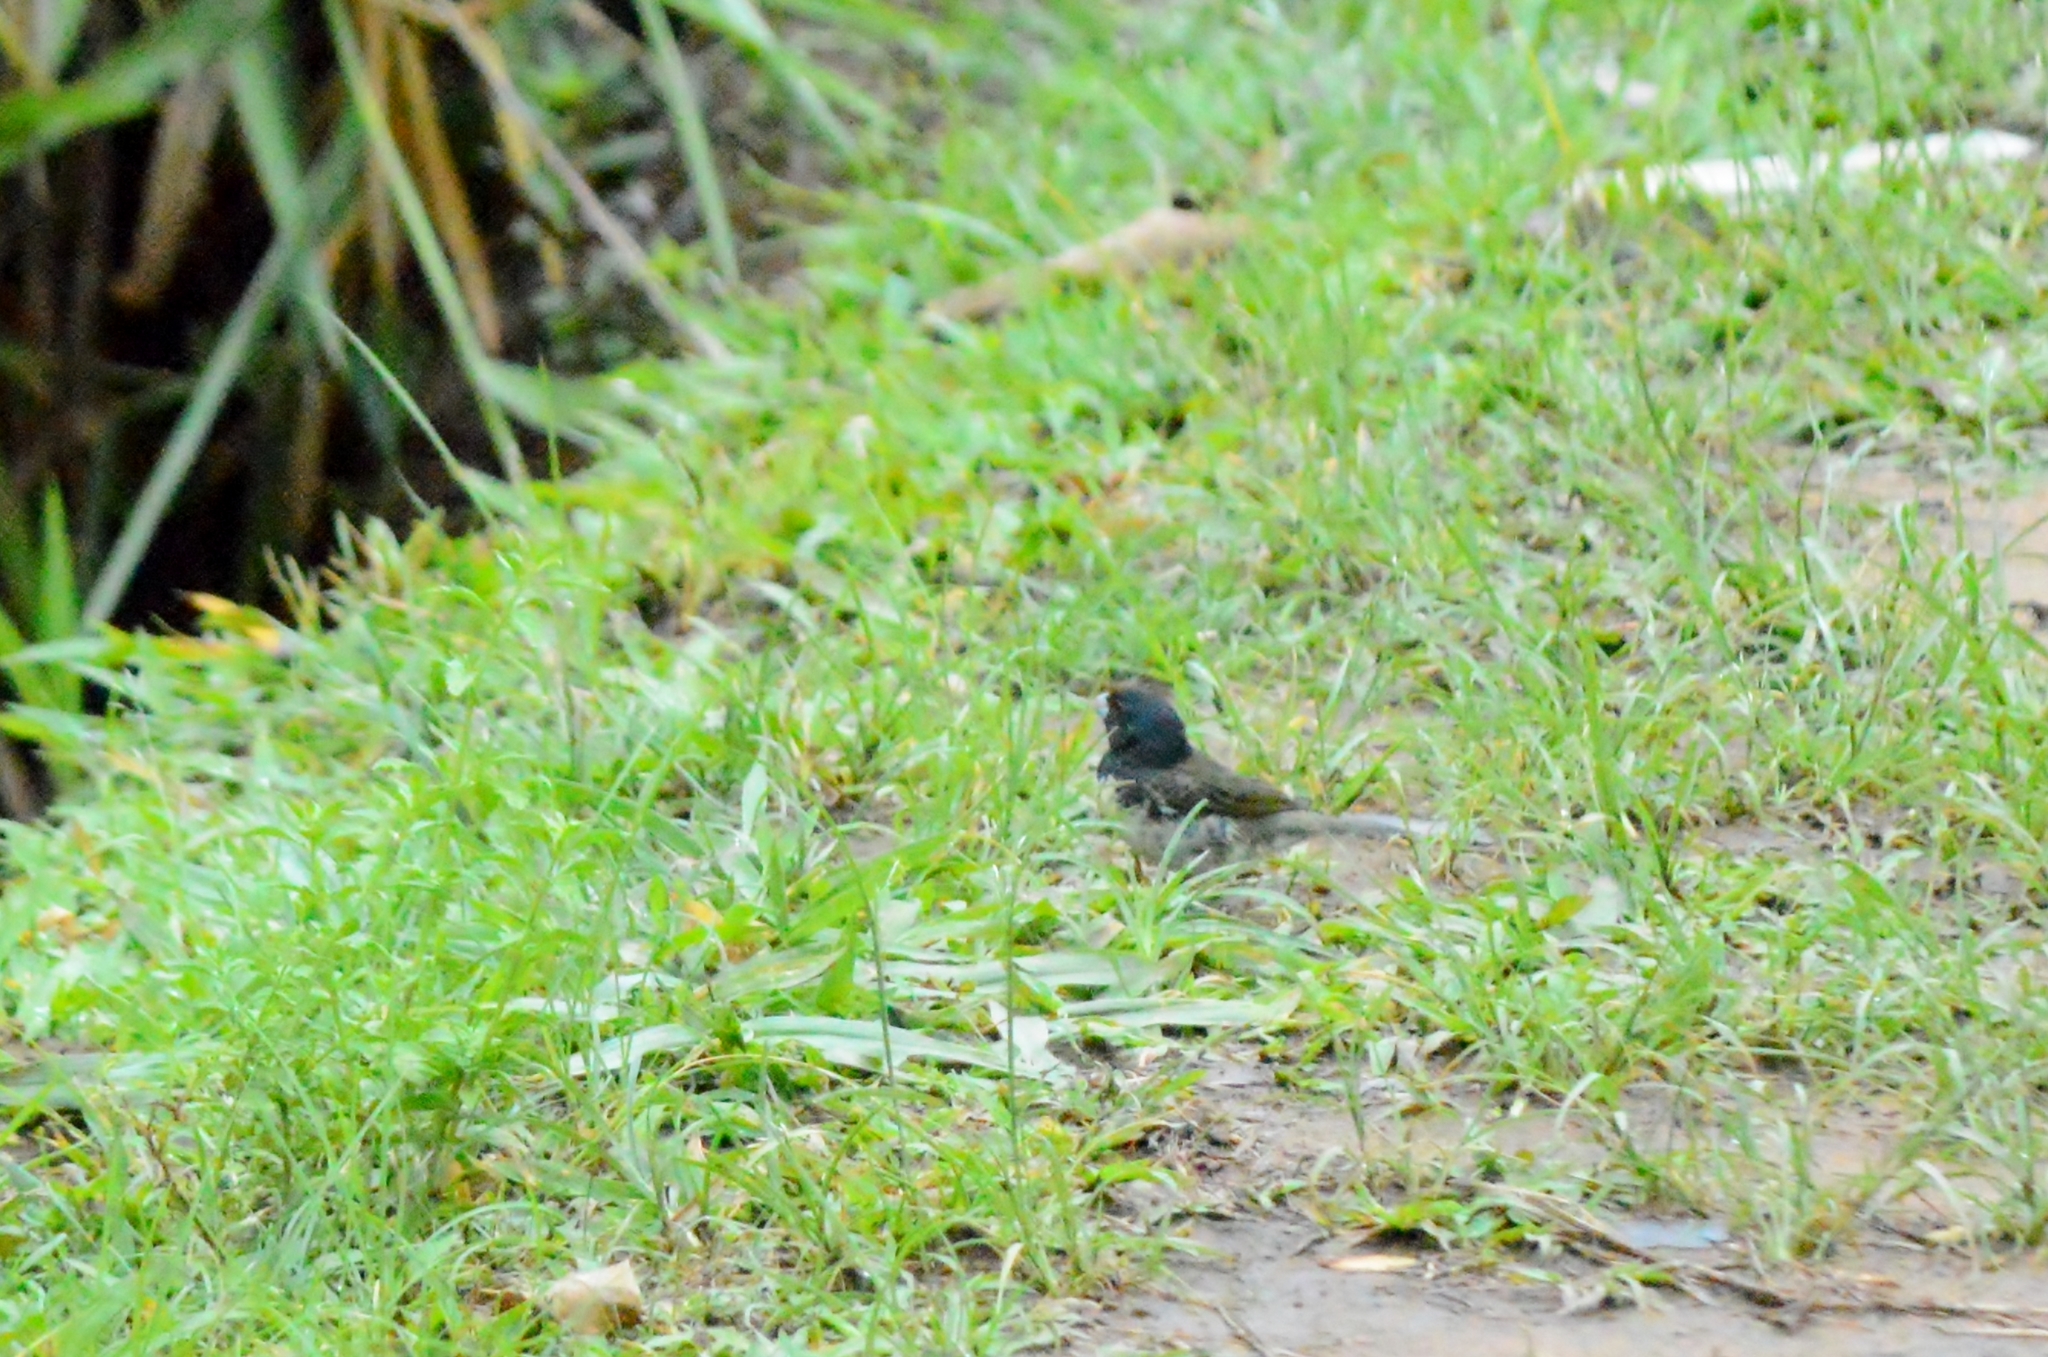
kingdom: Animalia
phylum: Chordata
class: Aves
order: Passeriformes
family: Thraupidae
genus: Sporophila
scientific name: Sporophila nigricollis
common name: Yellow-bellied seedeater
